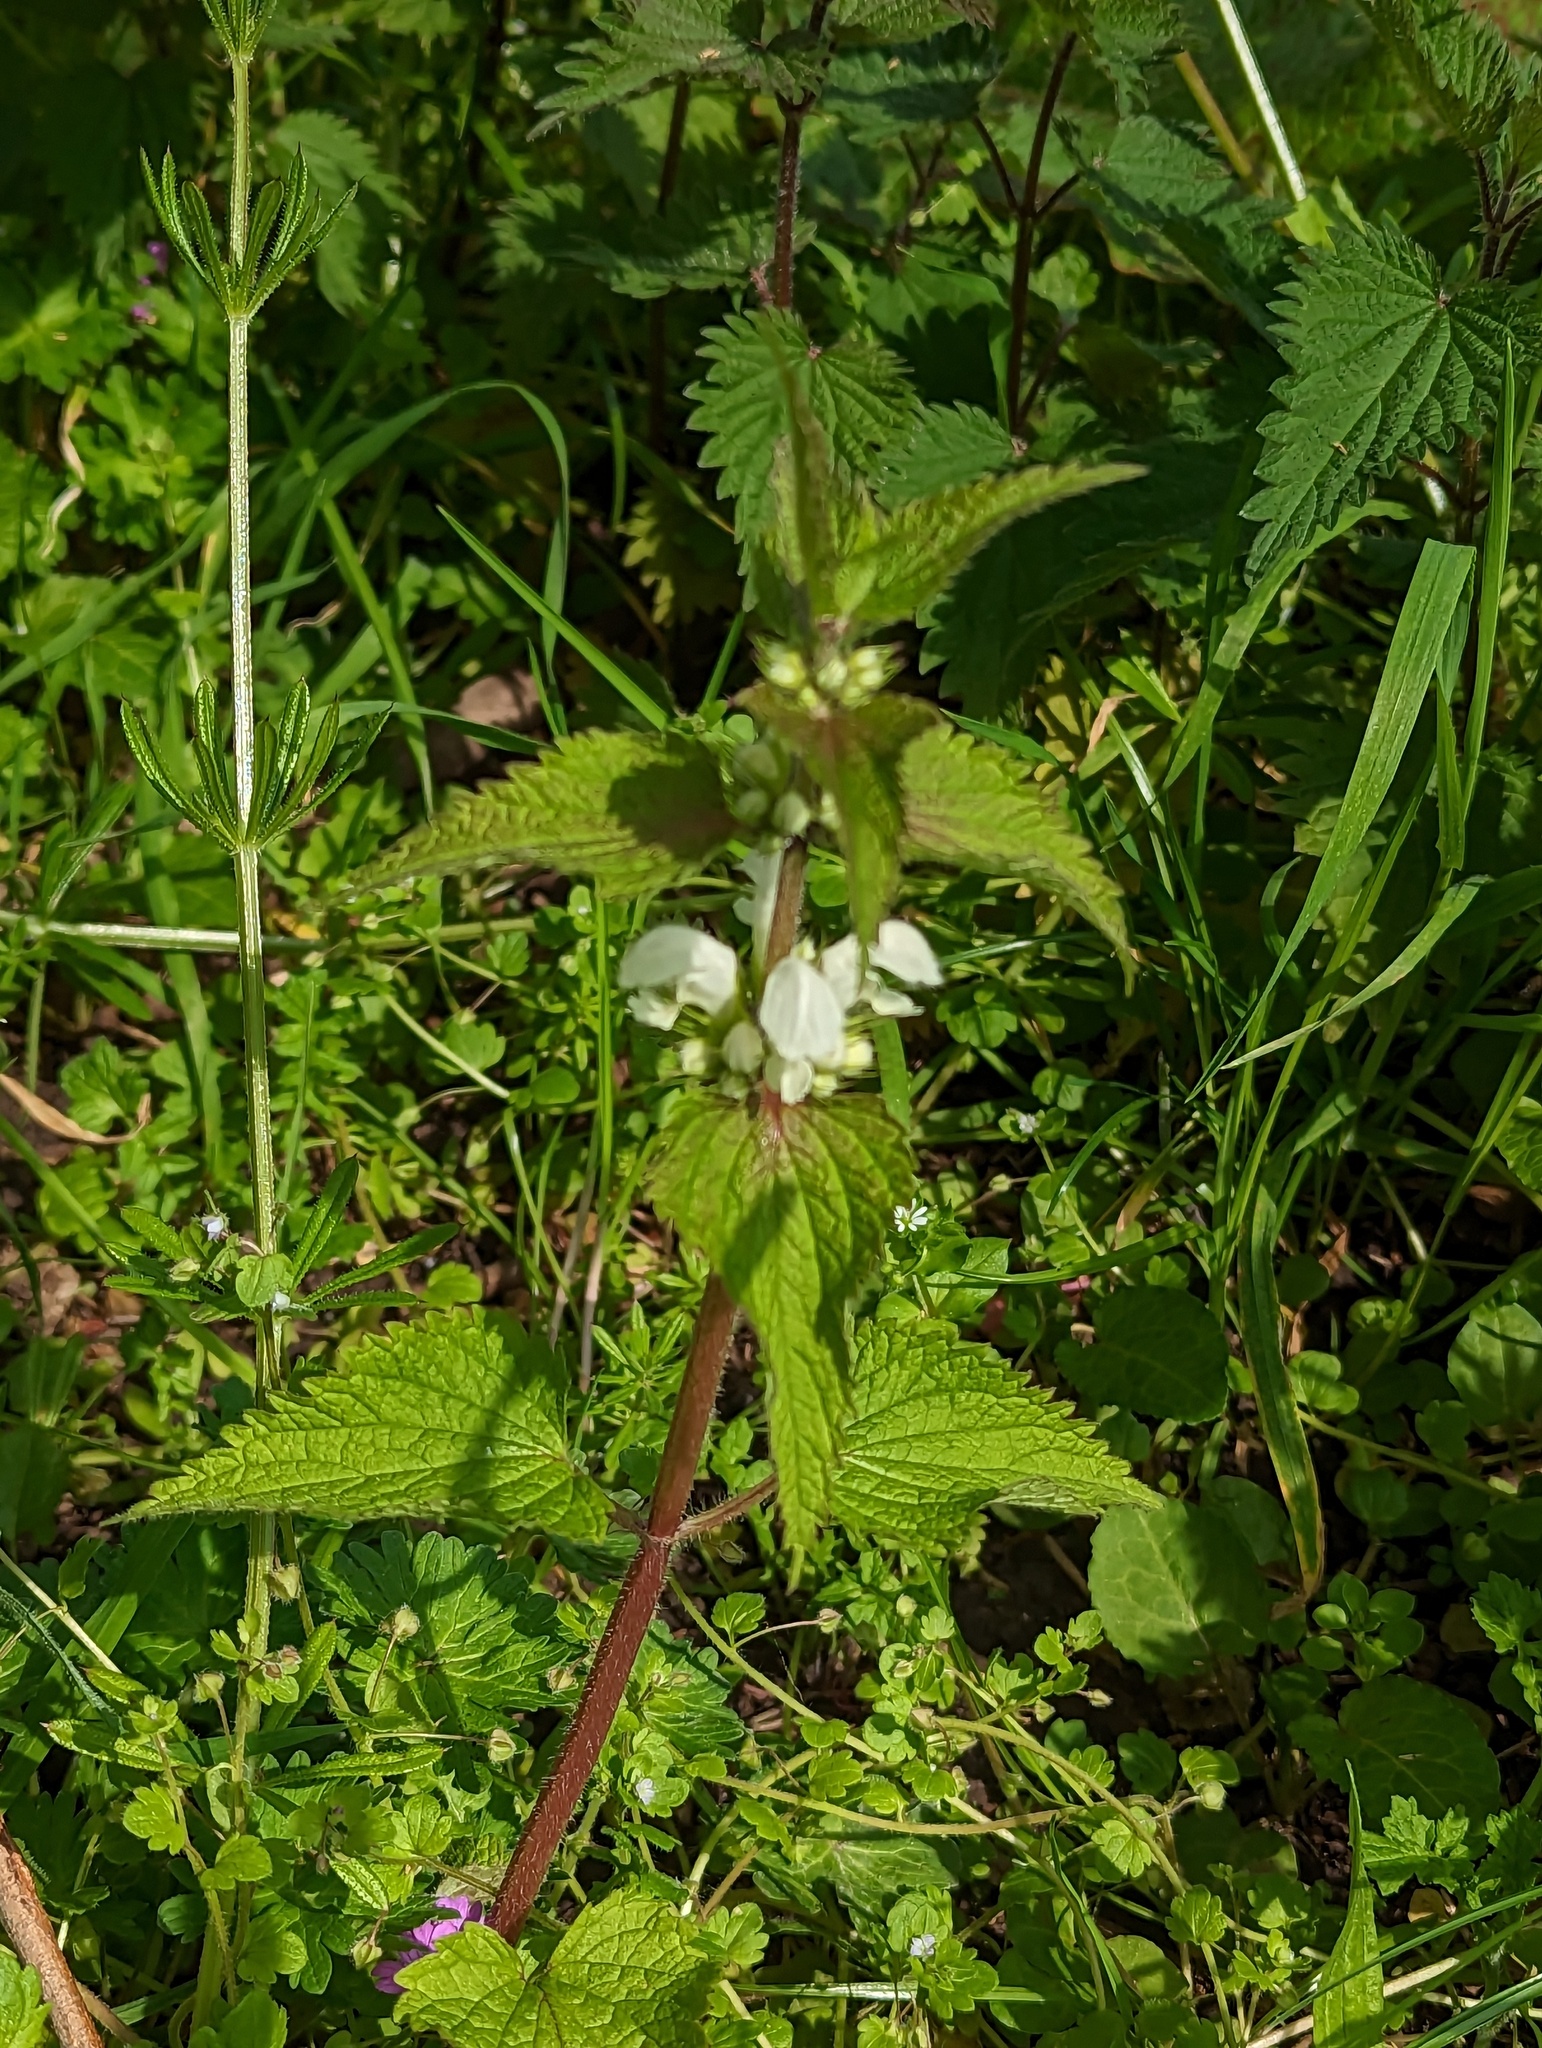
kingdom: Plantae
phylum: Tracheophyta
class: Magnoliopsida
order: Lamiales
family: Lamiaceae
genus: Lamium
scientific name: Lamium album
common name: White dead-nettle
